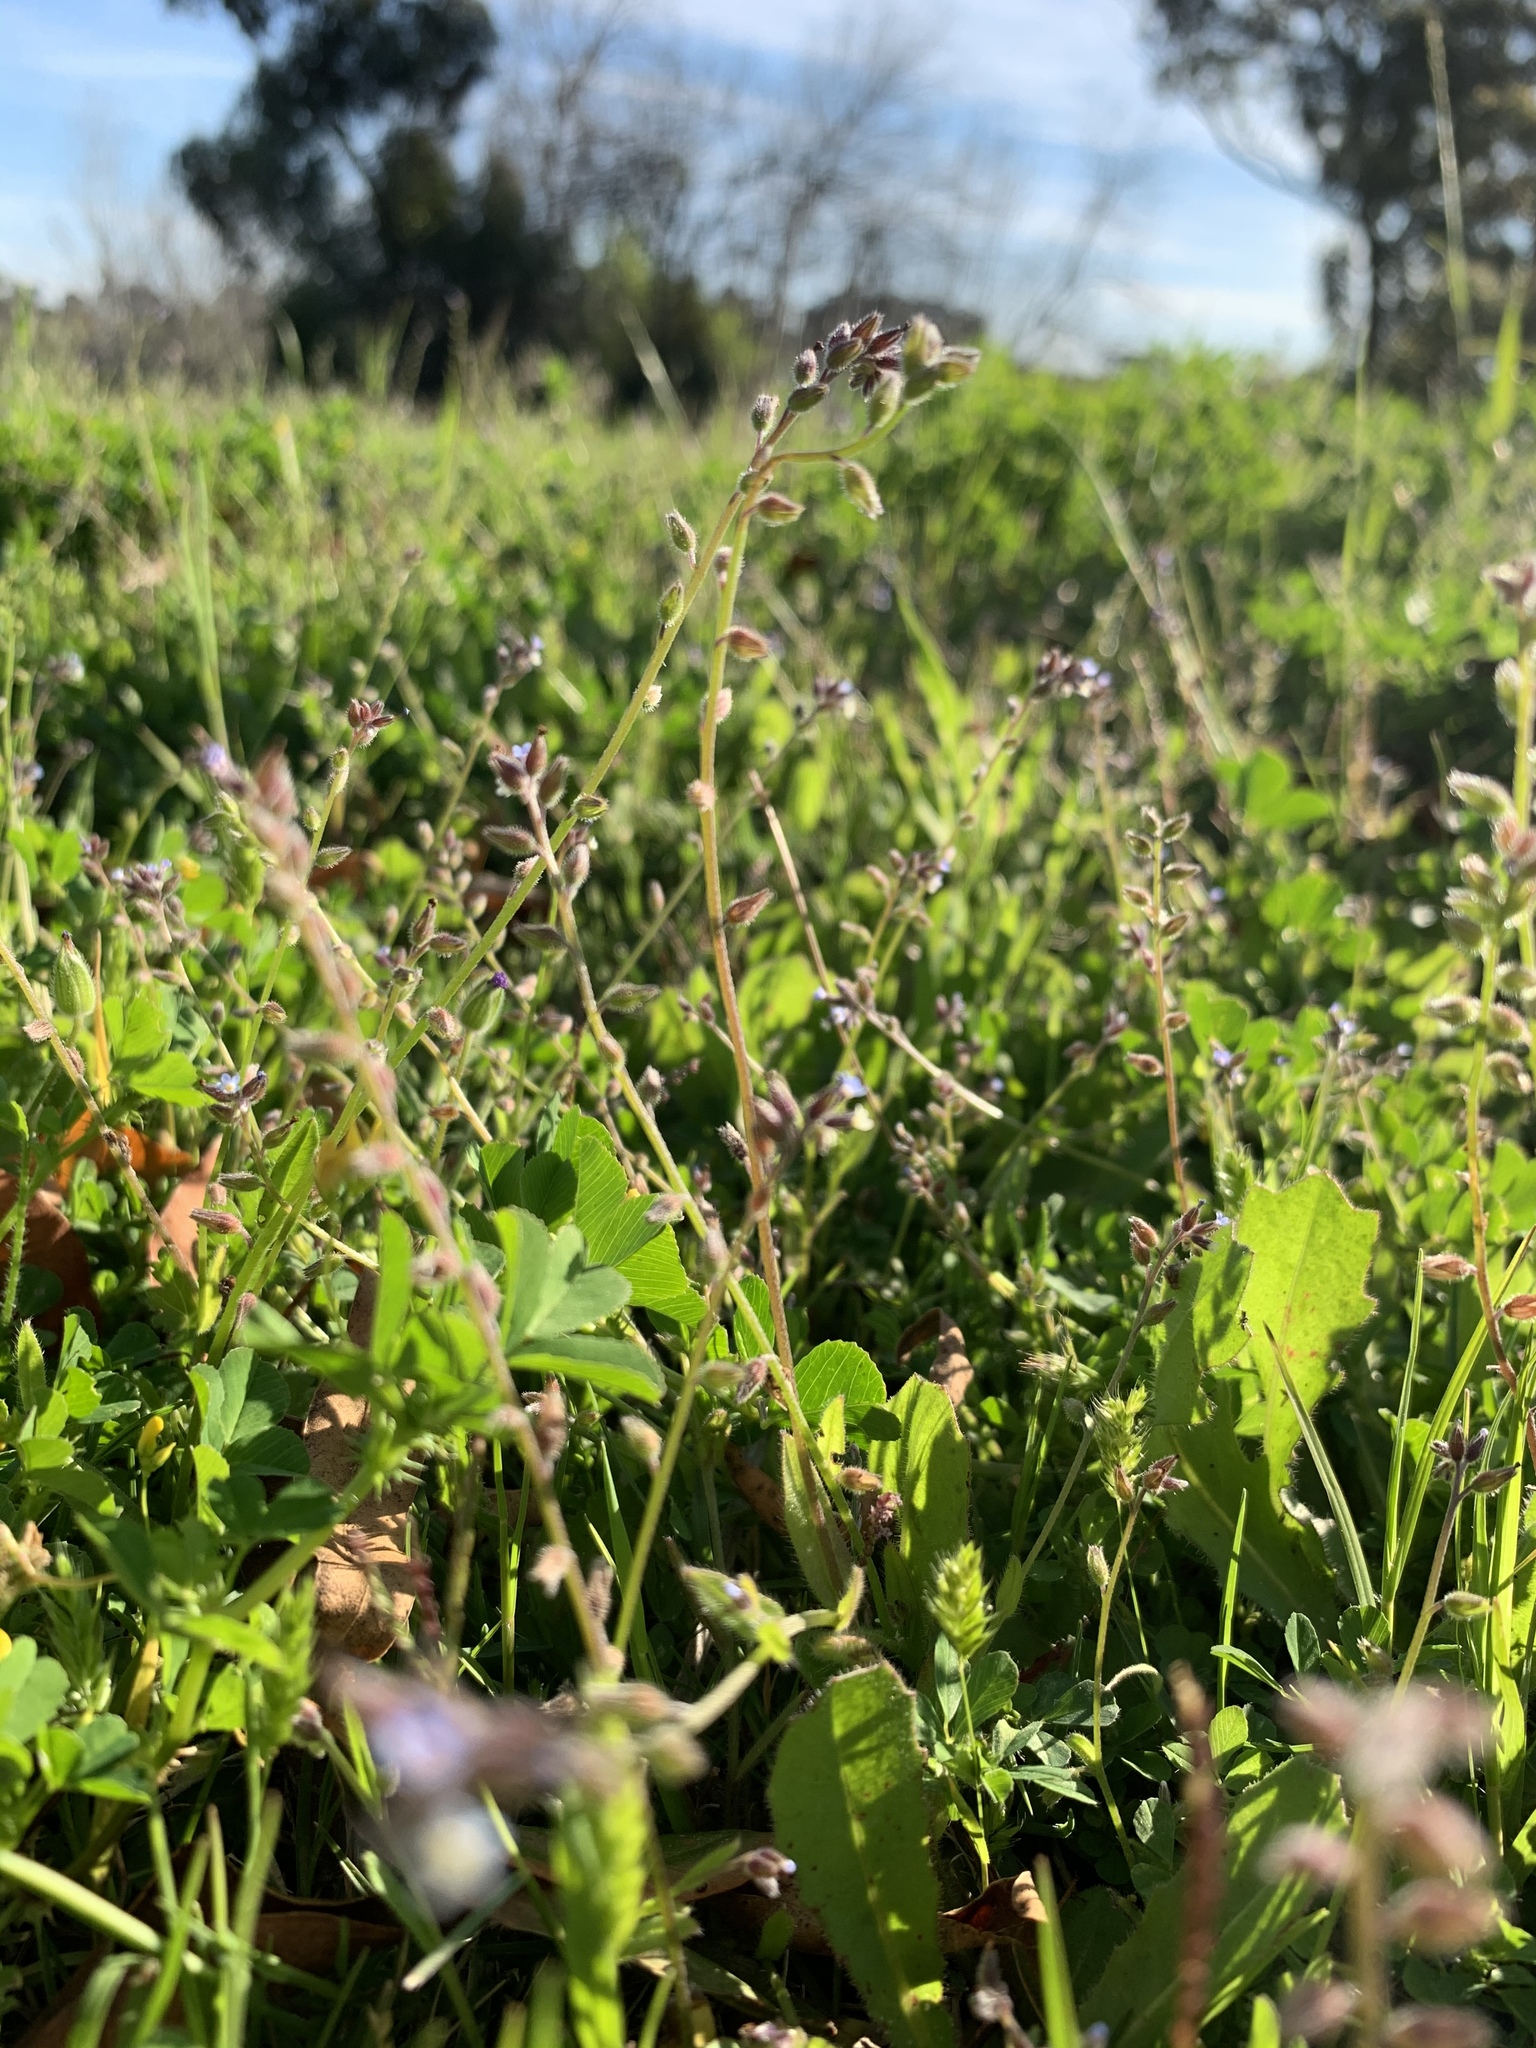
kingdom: Plantae
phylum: Tracheophyta
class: Magnoliopsida
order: Boraginales
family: Boraginaceae
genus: Myosotis
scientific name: Myosotis discolor
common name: Changing forget-me-not
